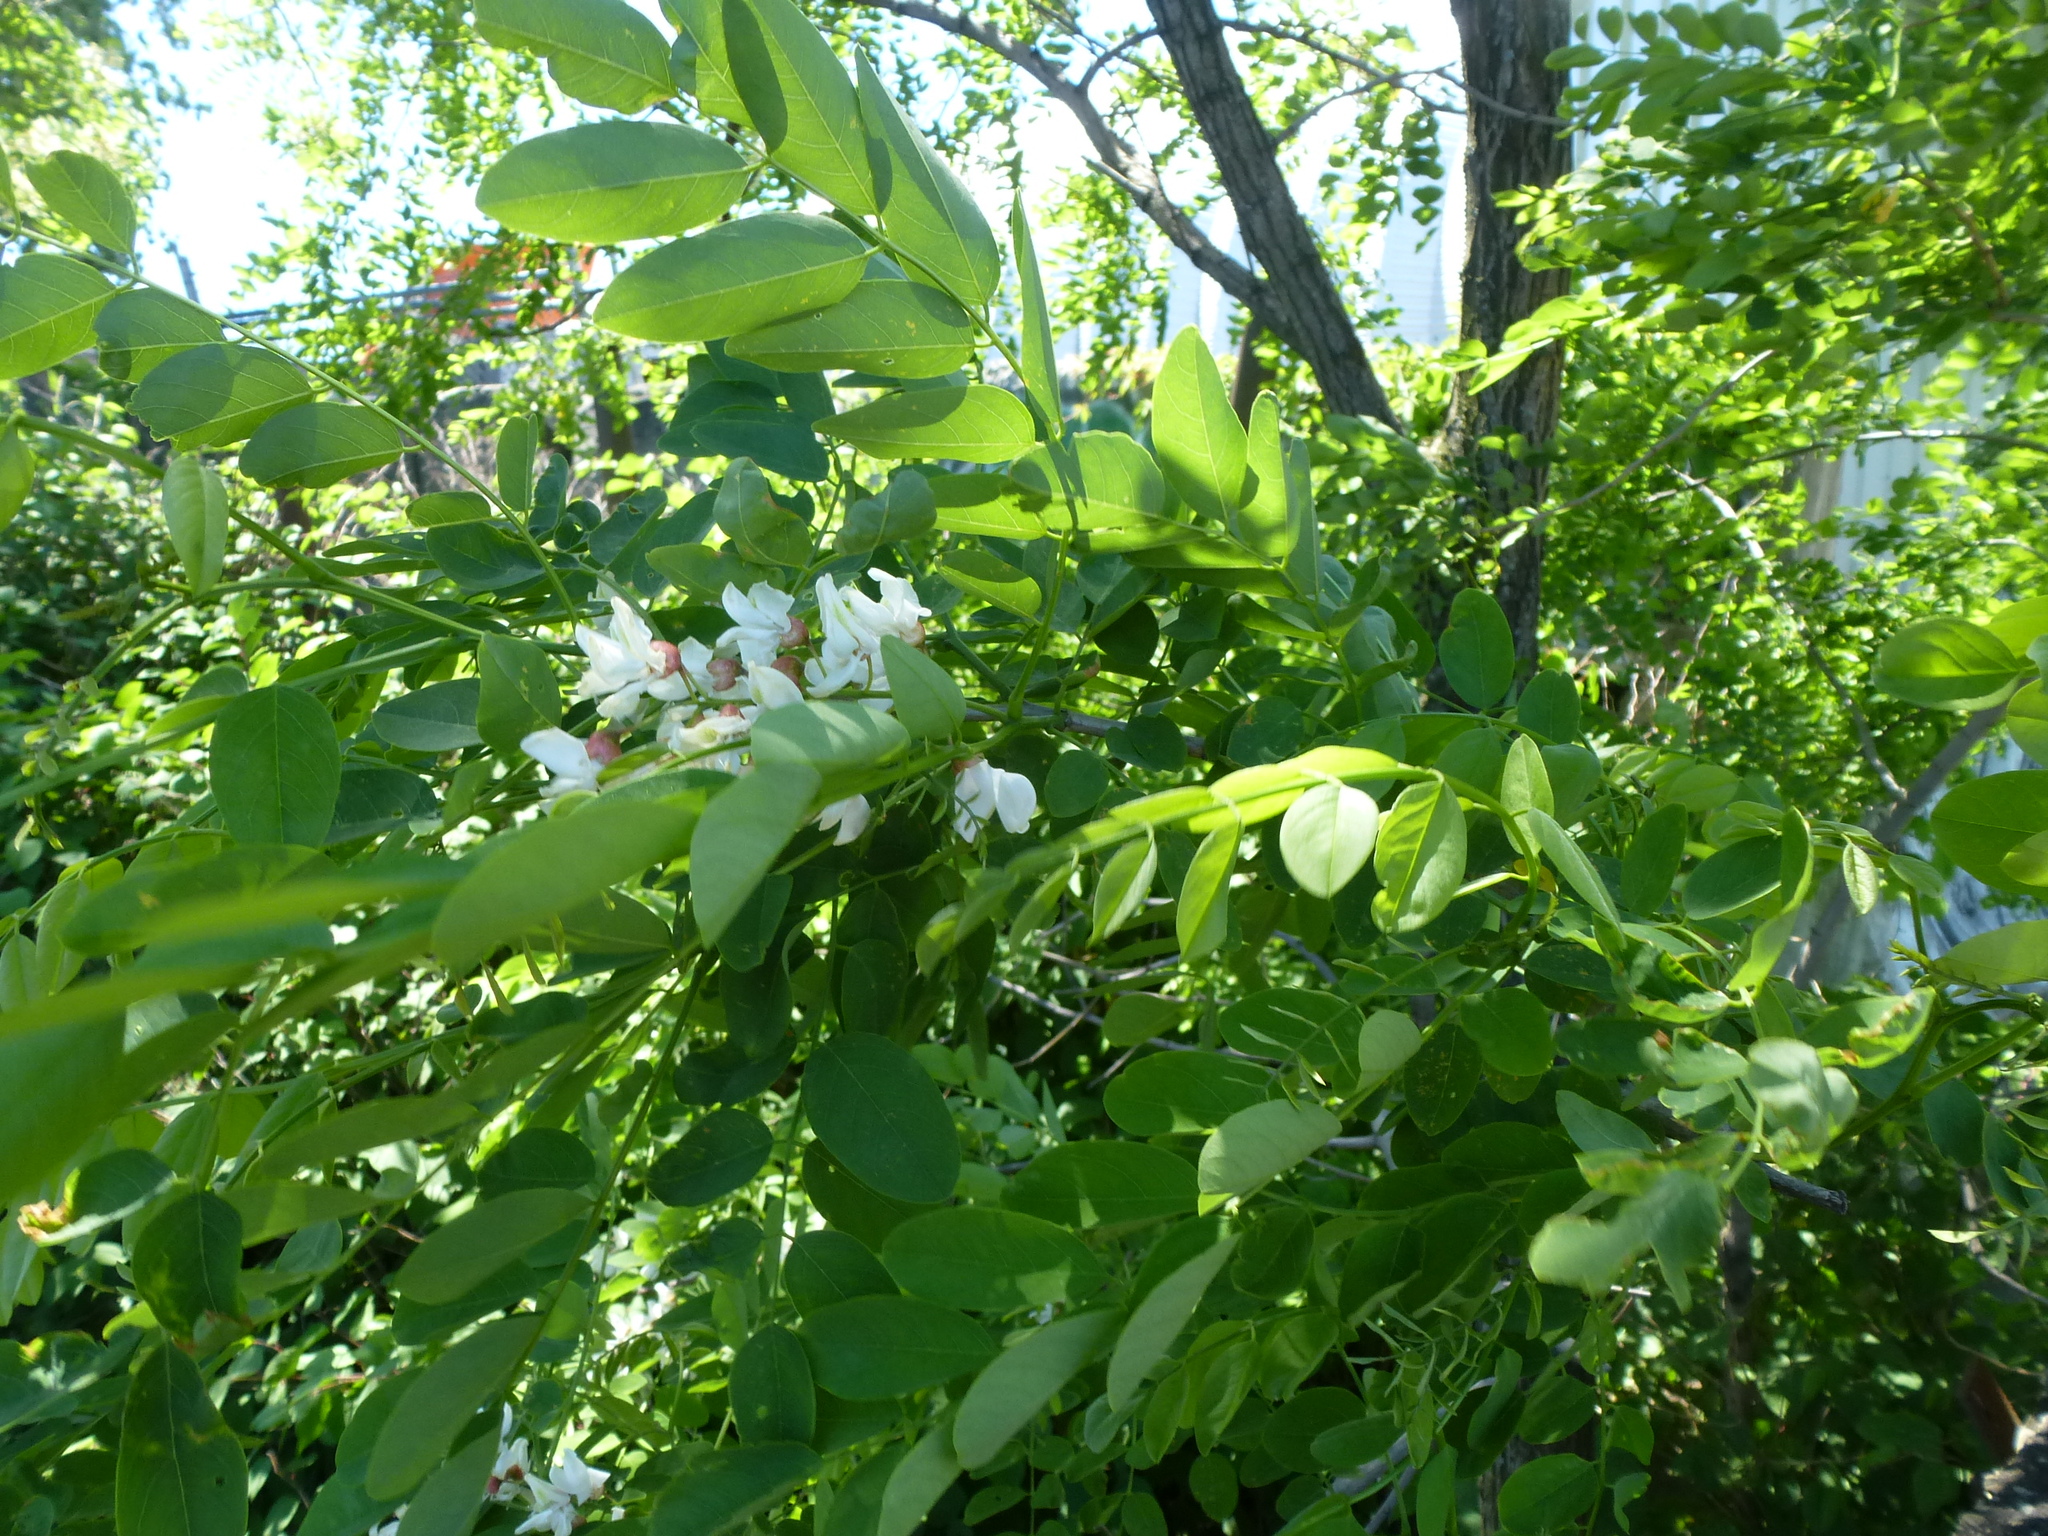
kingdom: Plantae
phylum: Tracheophyta
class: Magnoliopsida
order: Fabales
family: Fabaceae
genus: Robinia
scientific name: Robinia pseudoacacia
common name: Black locust
